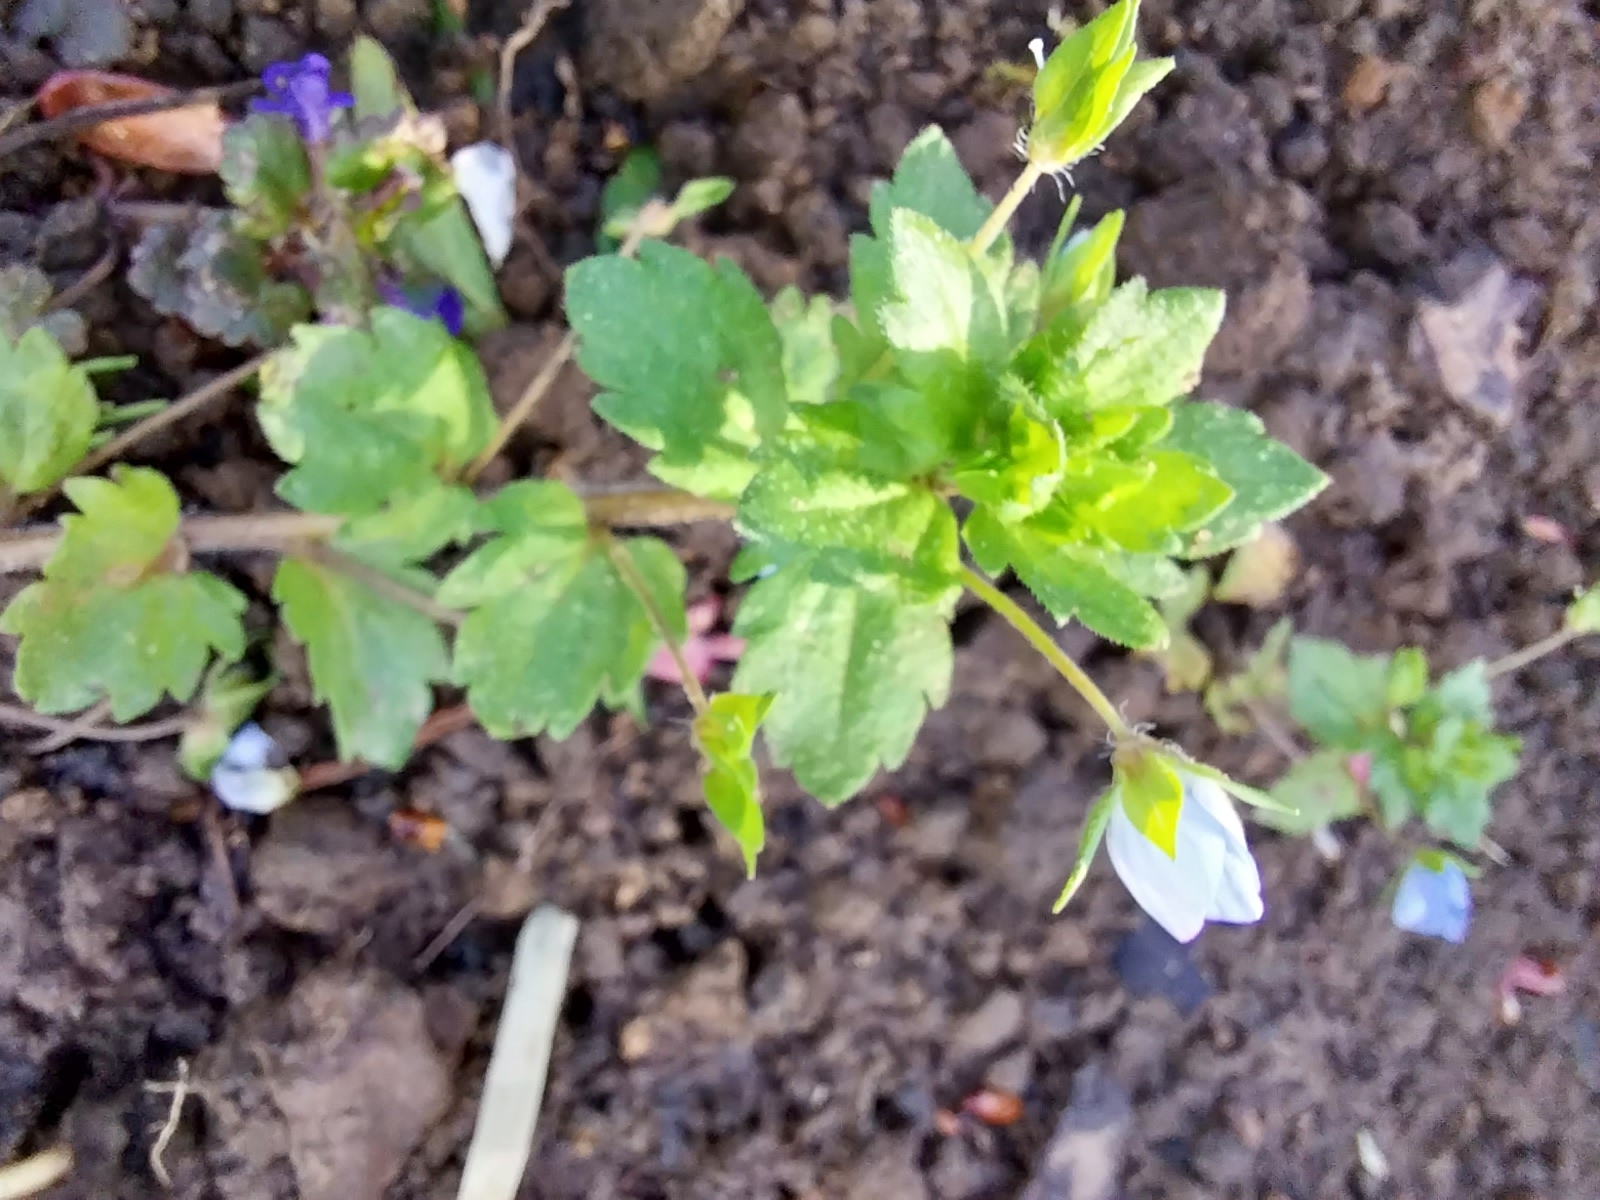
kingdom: Plantae
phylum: Tracheophyta
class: Magnoliopsida
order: Lamiales
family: Plantaginaceae
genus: Veronica
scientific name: Veronica persica
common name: Common field-speedwell
